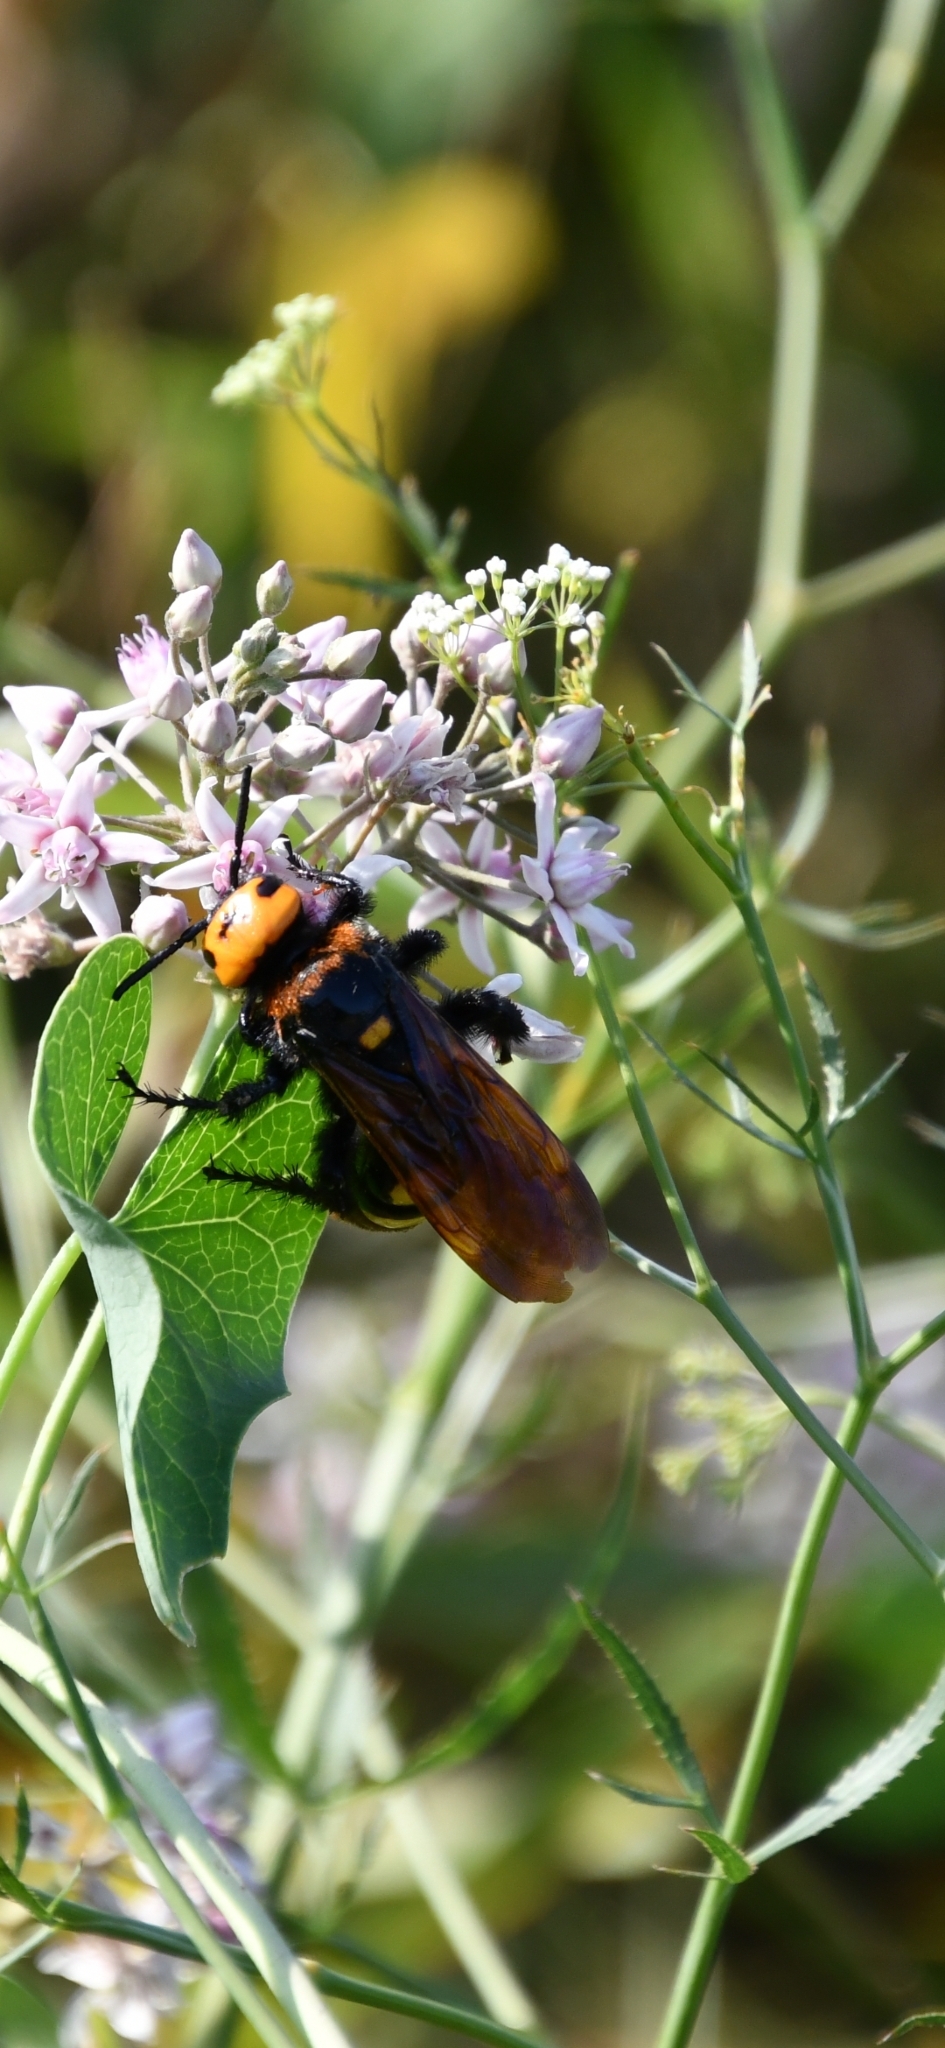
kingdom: Animalia
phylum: Arthropoda
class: Insecta
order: Hymenoptera
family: Scoliidae
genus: Megascolia
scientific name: Megascolia maculata
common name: Mammoth wasp
